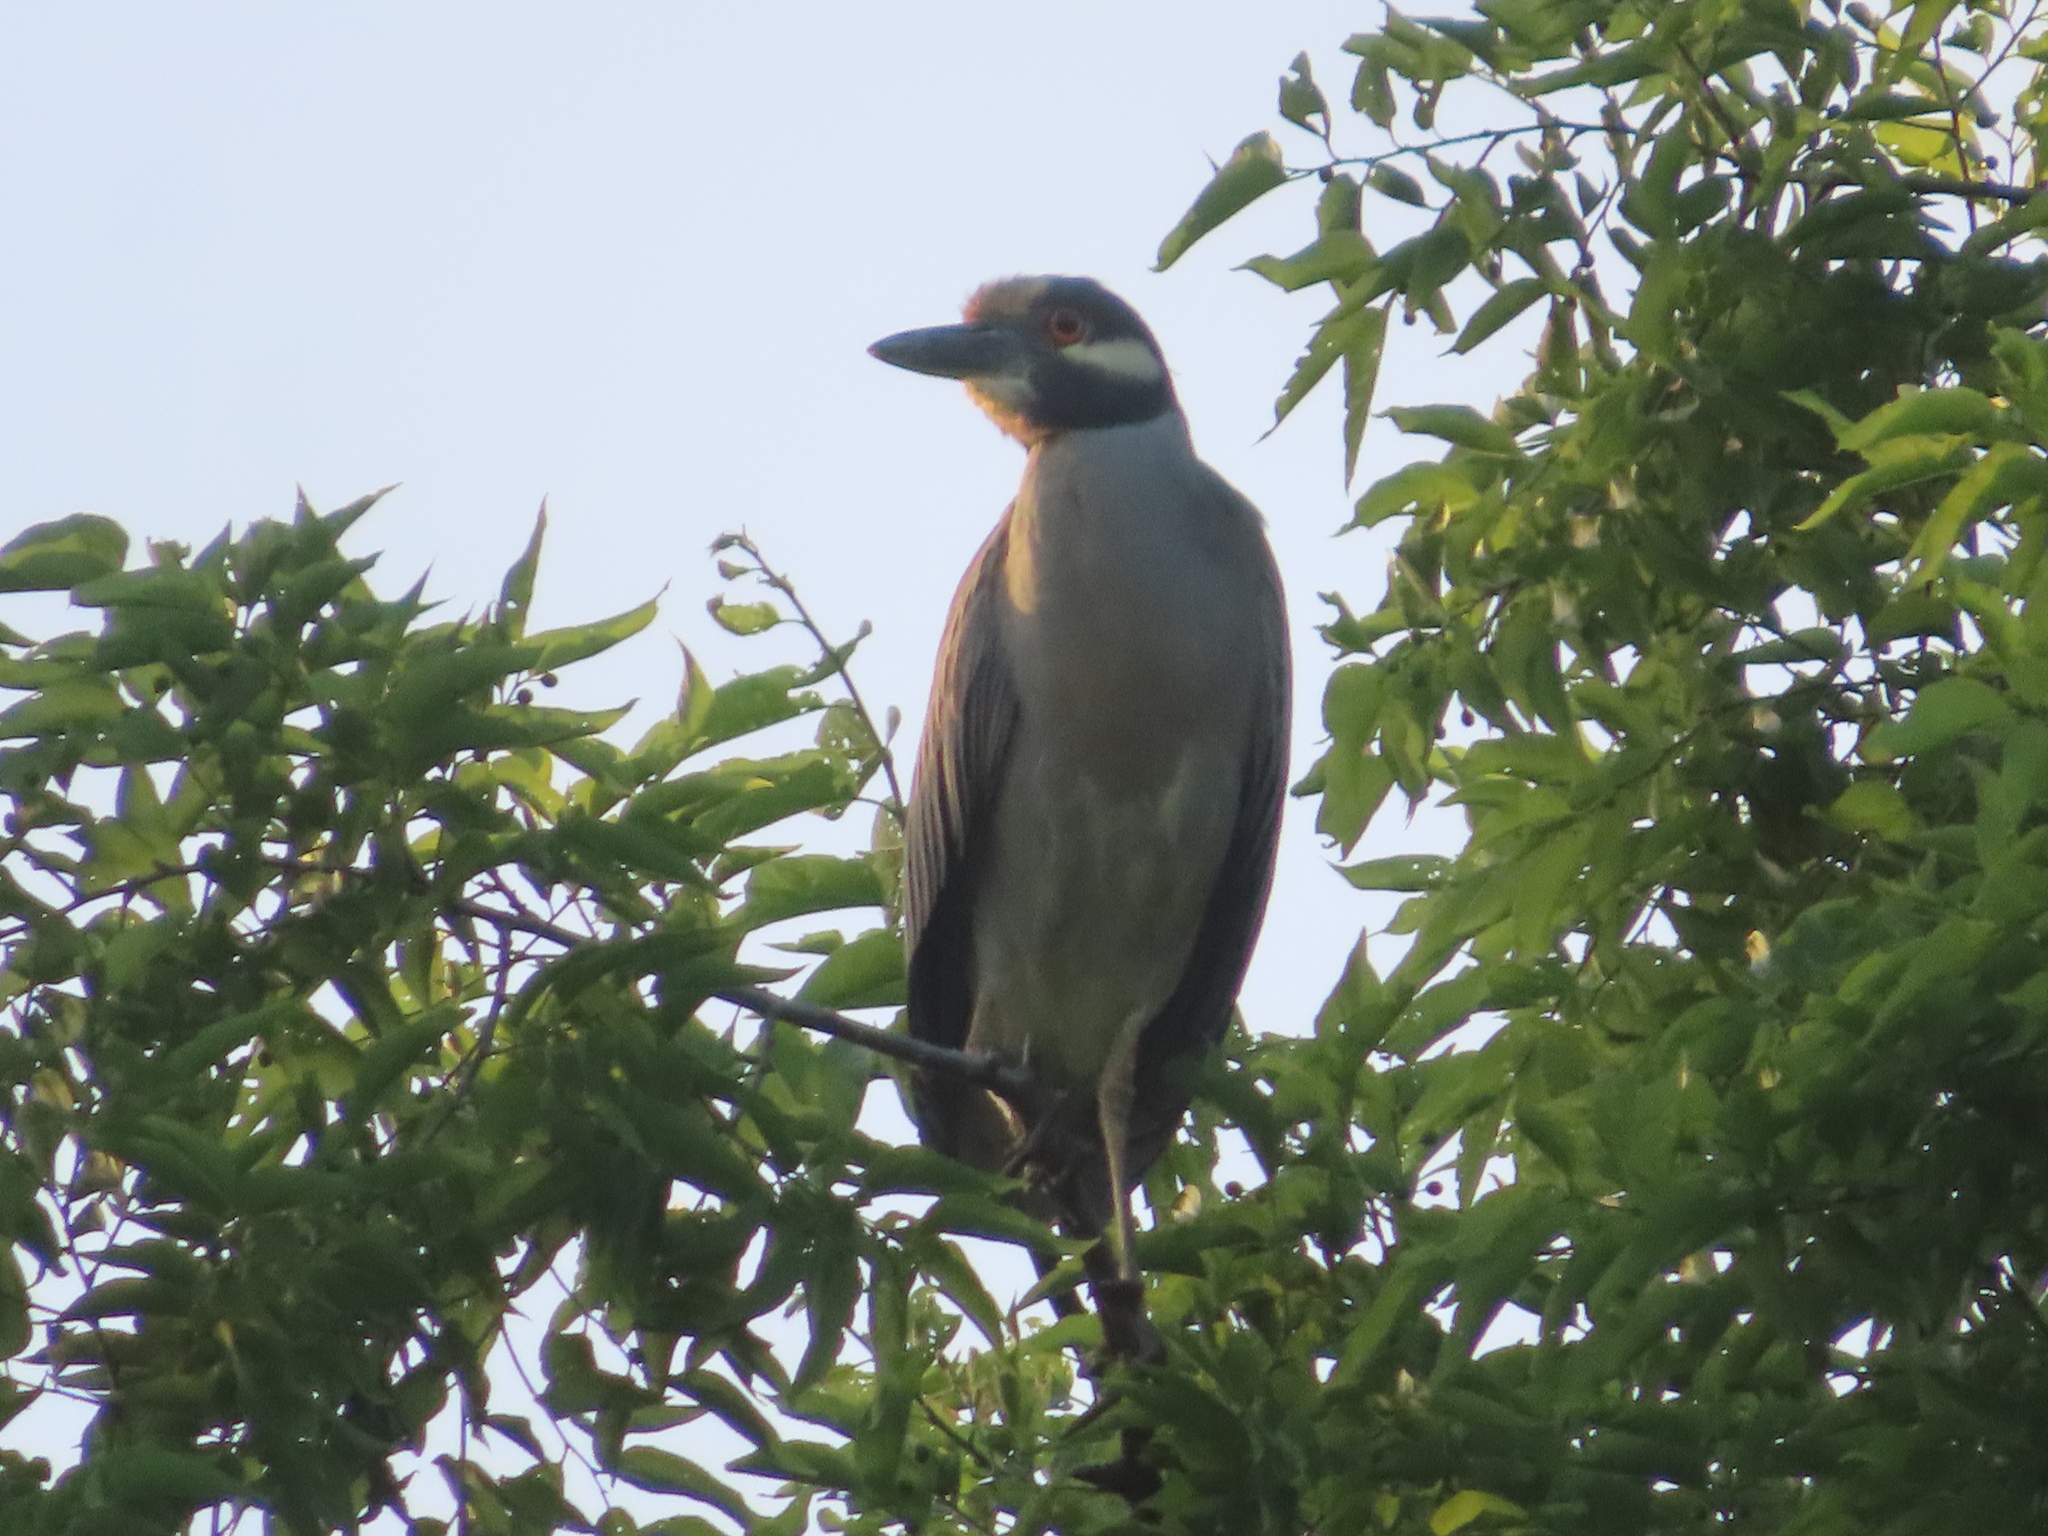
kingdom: Animalia
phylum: Chordata
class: Aves
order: Pelecaniformes
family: Ardeidae
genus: Nyctanassa
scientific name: Nyctanassa violacea
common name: Yellow-crowned night heron
